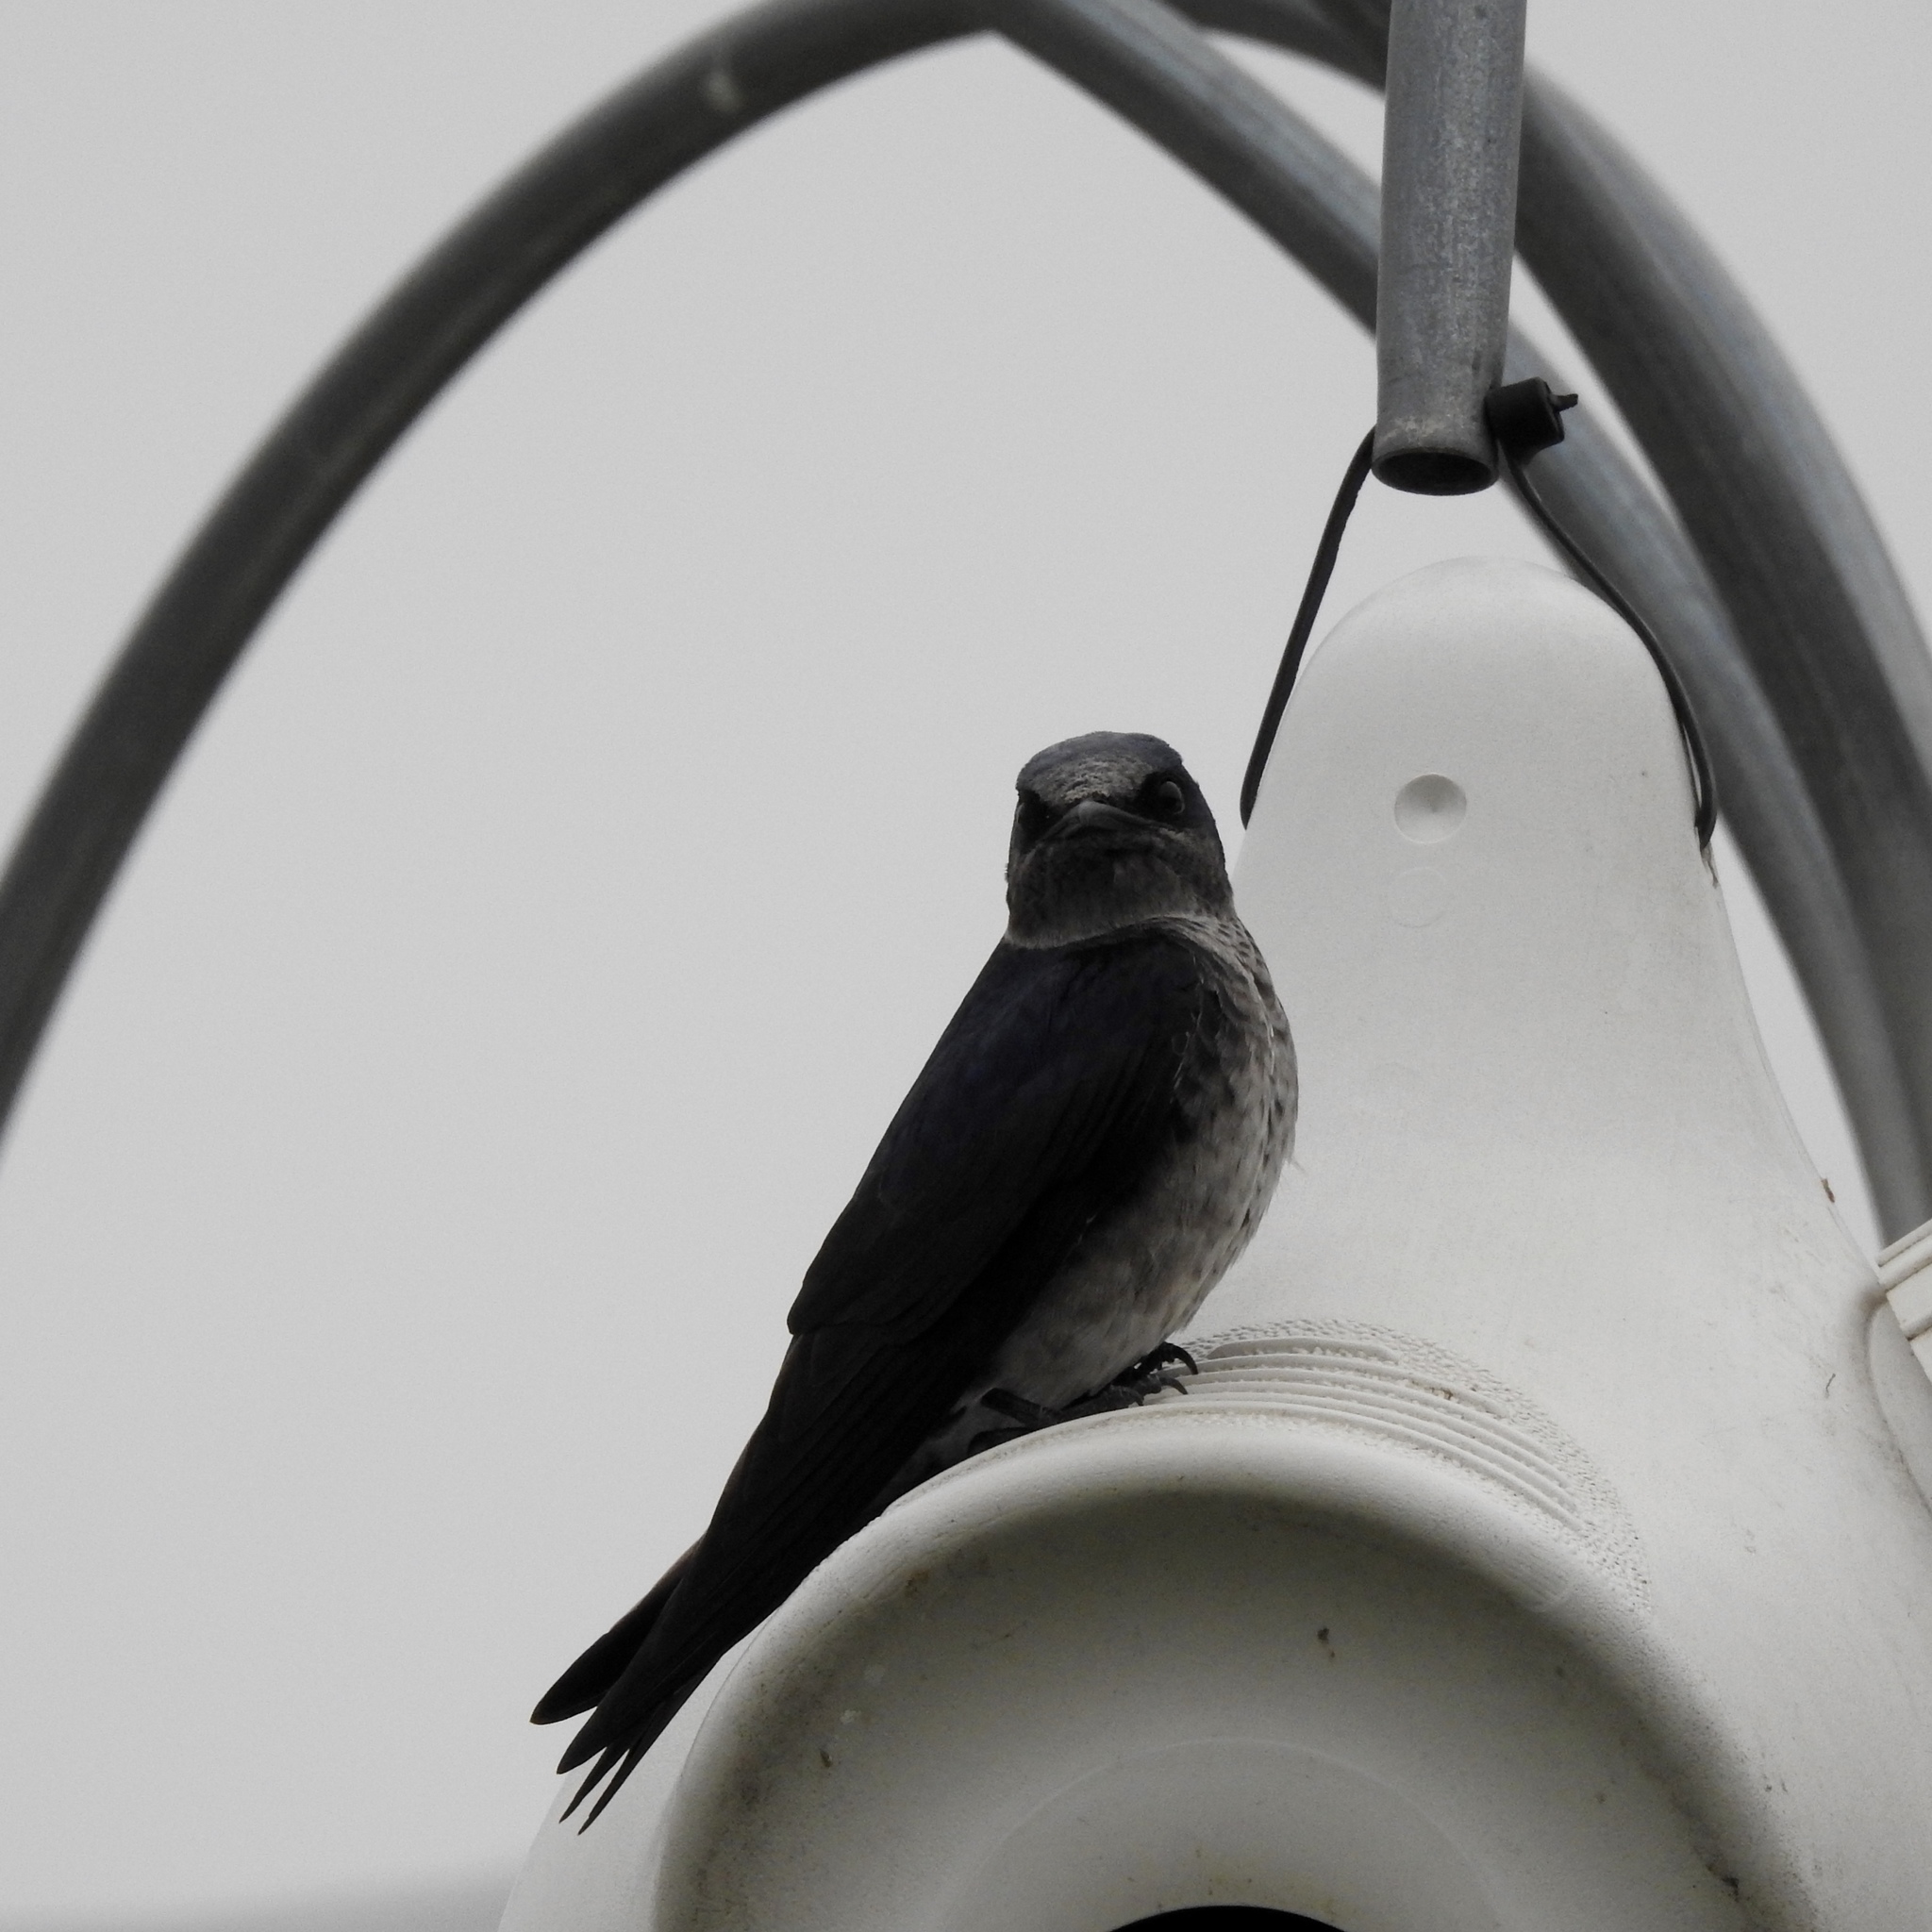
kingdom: Animalia
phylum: Chordata
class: Aves
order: Passeriformes
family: Hirundinidae
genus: Progne
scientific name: Progne subis
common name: Purple martin
